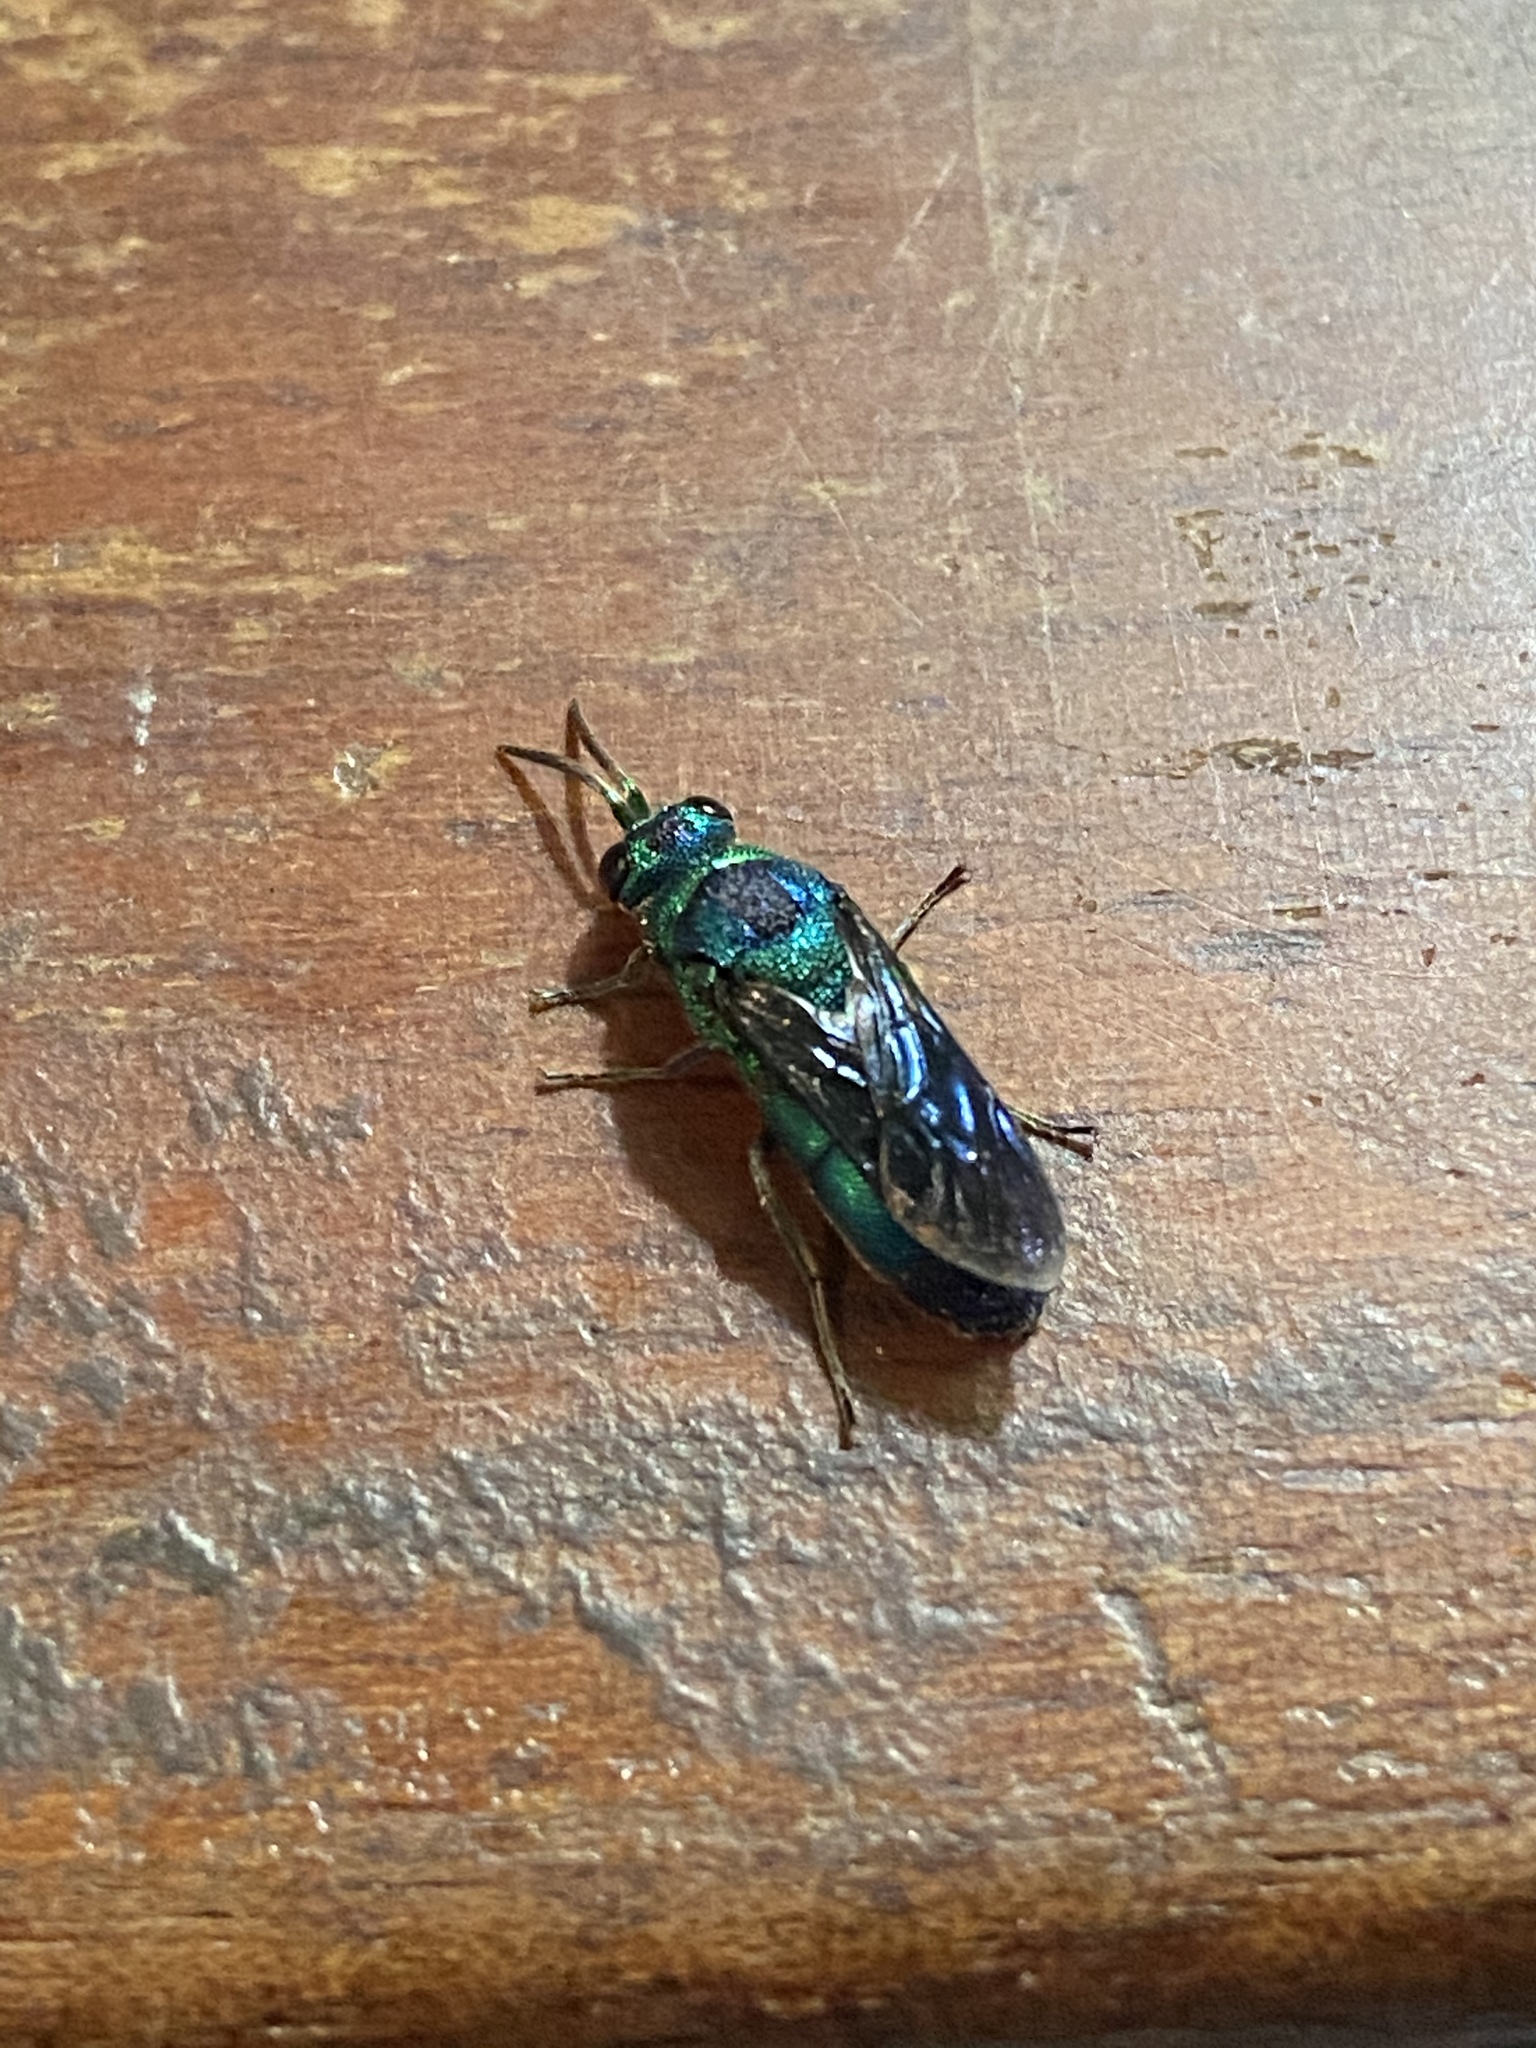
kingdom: Animalia
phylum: Arthropoda
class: Insecta
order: Hymenoptera
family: Chrysididae
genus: Chrysis
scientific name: Chrysis angolensis
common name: Cuckoo wasp
